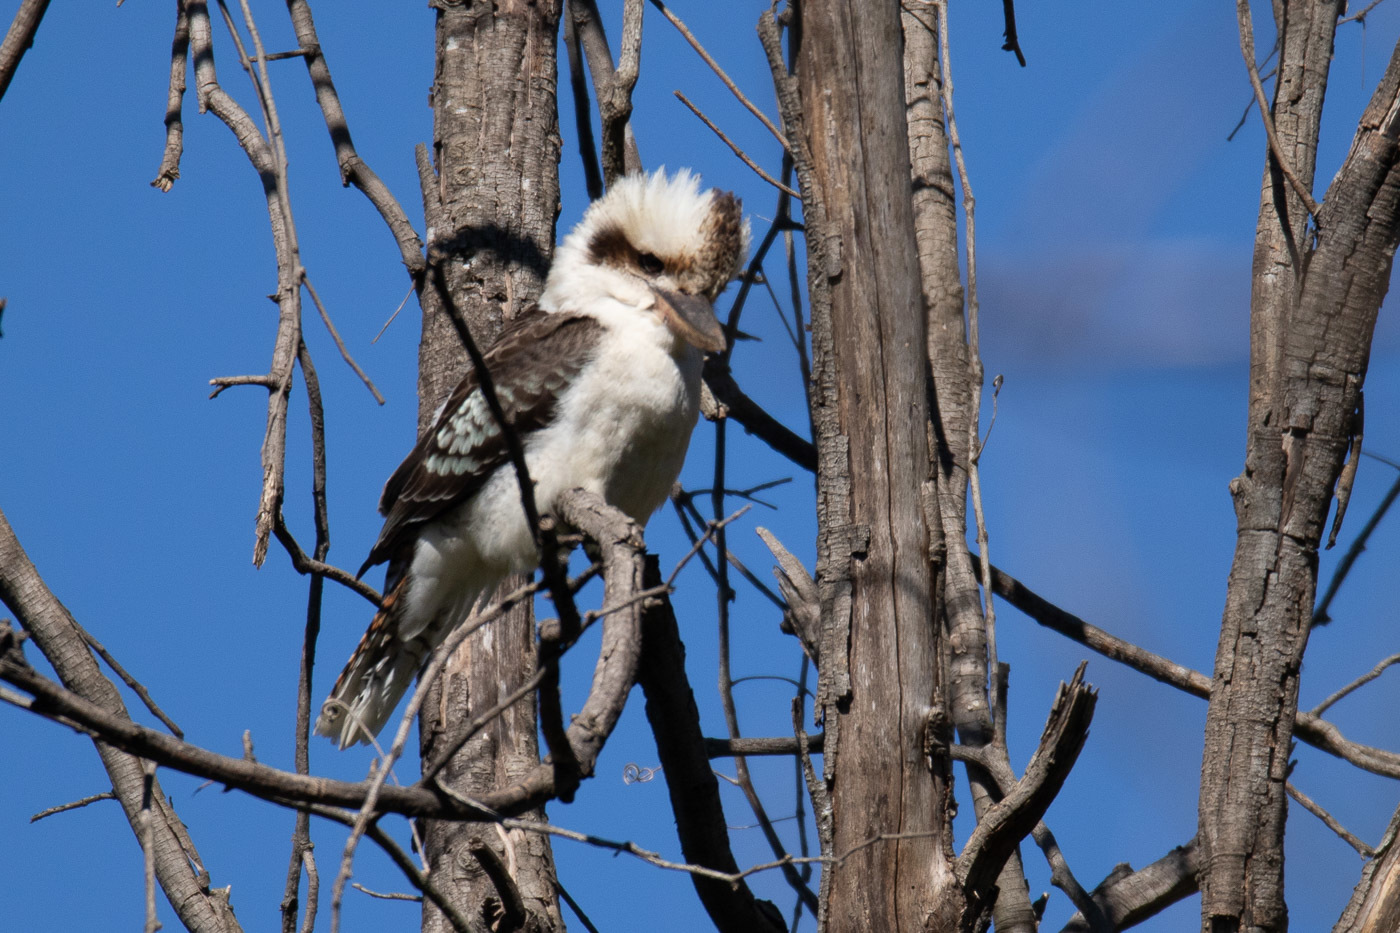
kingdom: Animalia
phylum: Chordata
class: Aves
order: Coraciiformes
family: Alcedinidae
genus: Dacelo
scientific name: Dacelo novaeguineae
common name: Laughing kookaburra
